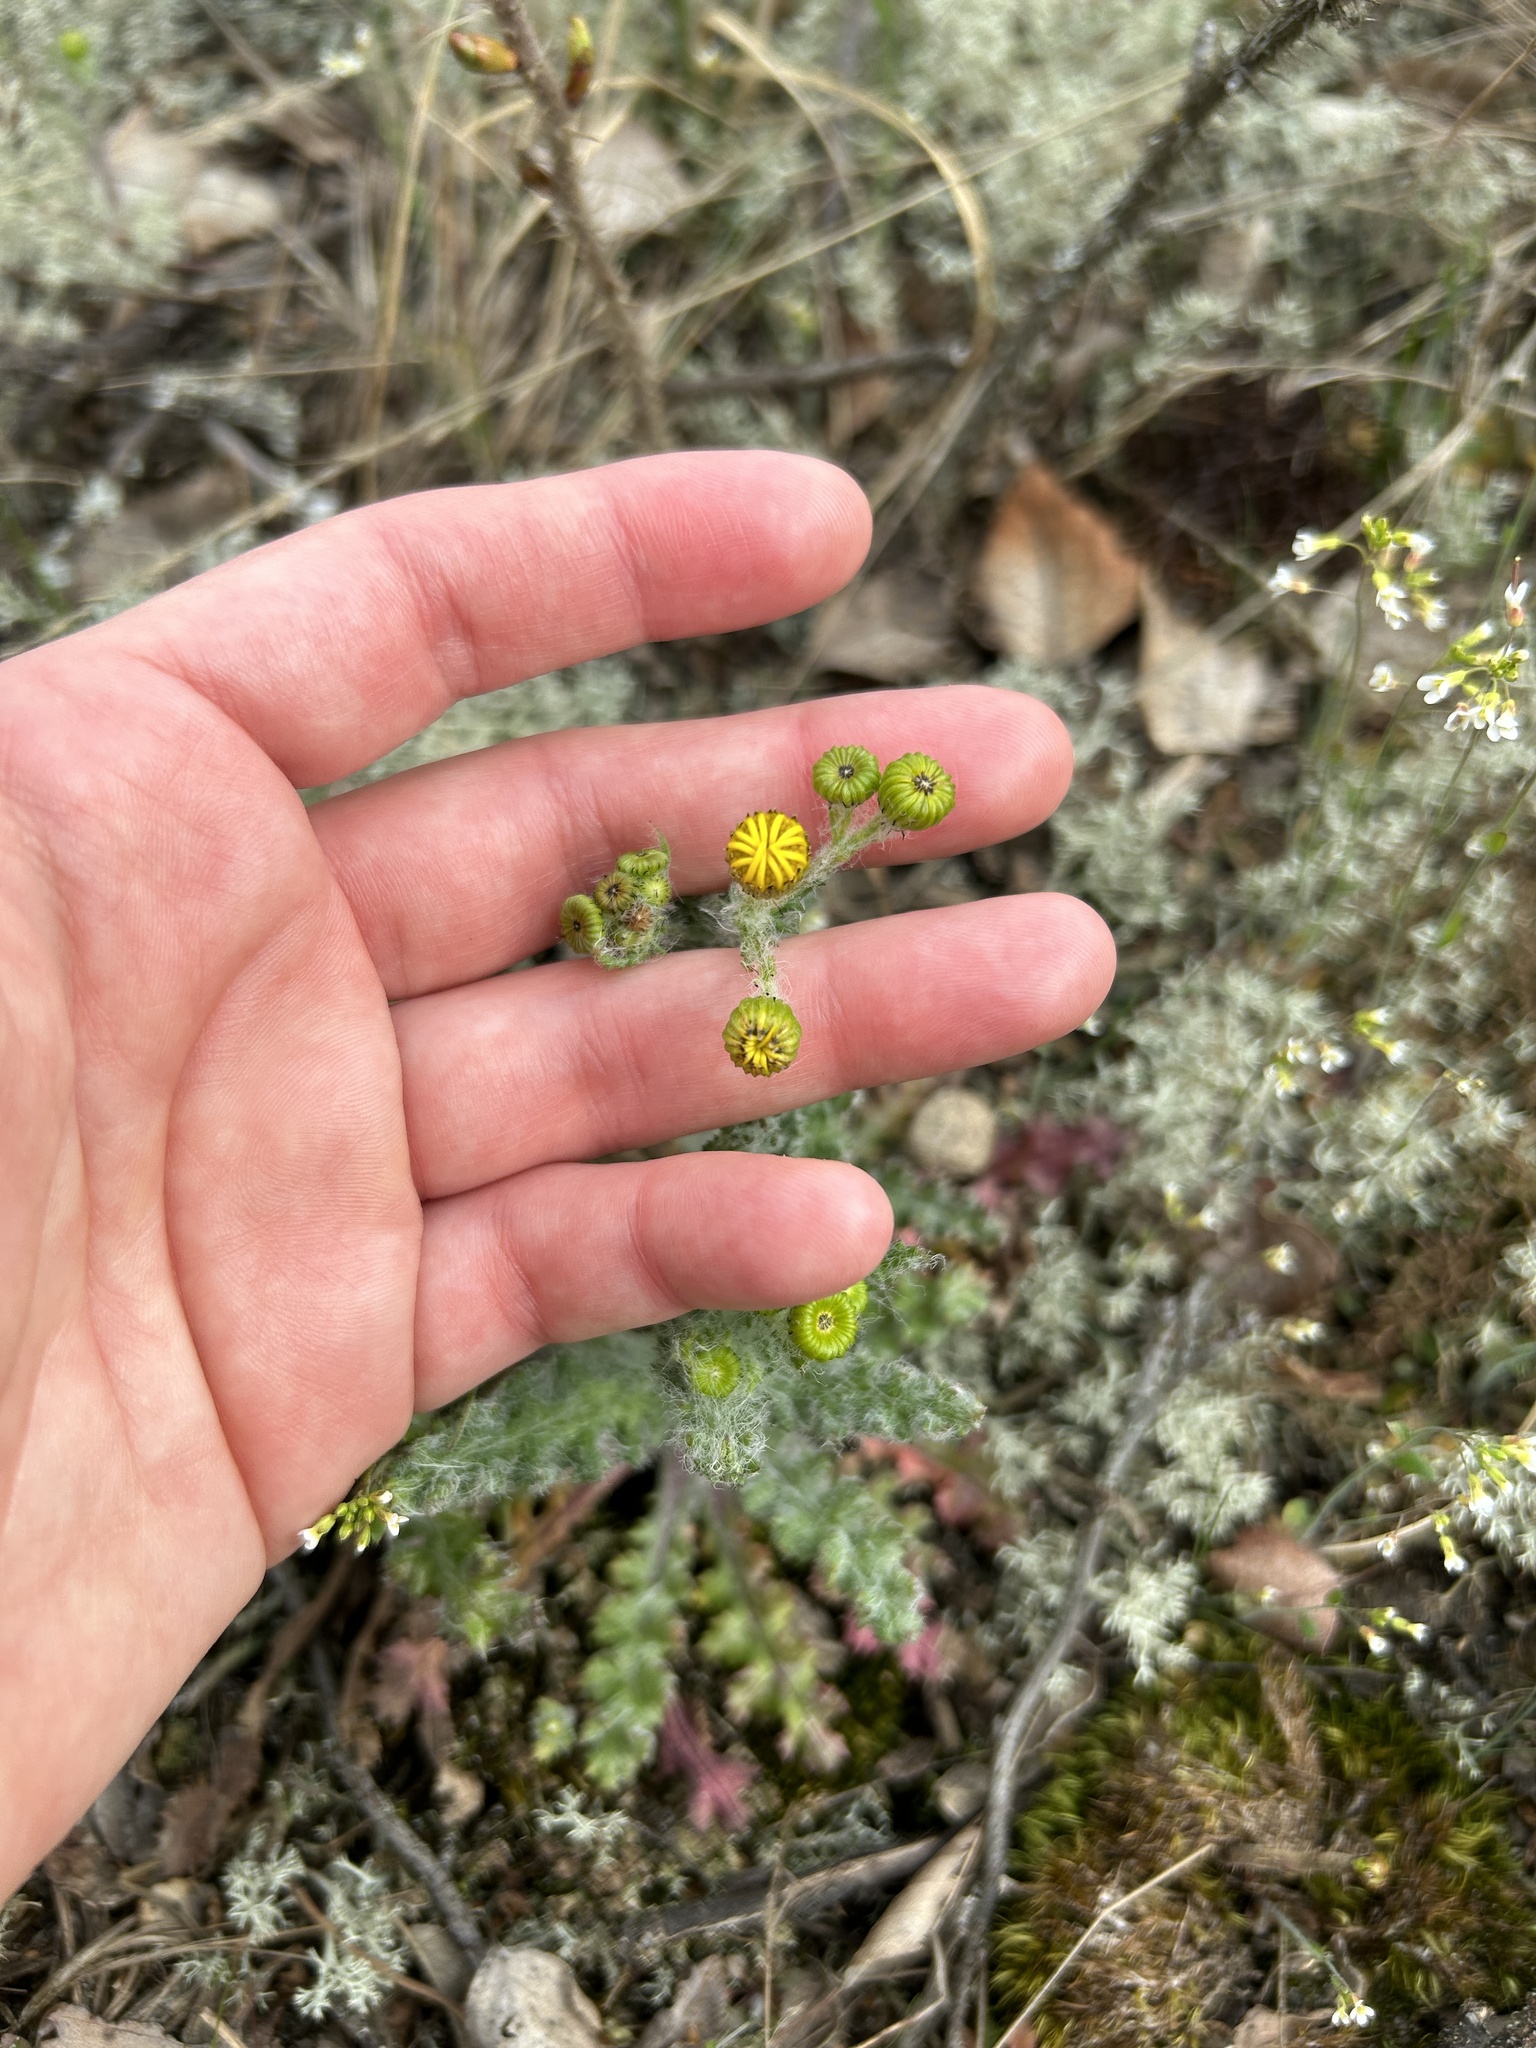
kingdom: Plantae
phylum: Tracheophyta
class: Magnoliopsida
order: Asterales
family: Asteraceae
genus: Senecio
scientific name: Senecio vernalis
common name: Eastern groundsel
